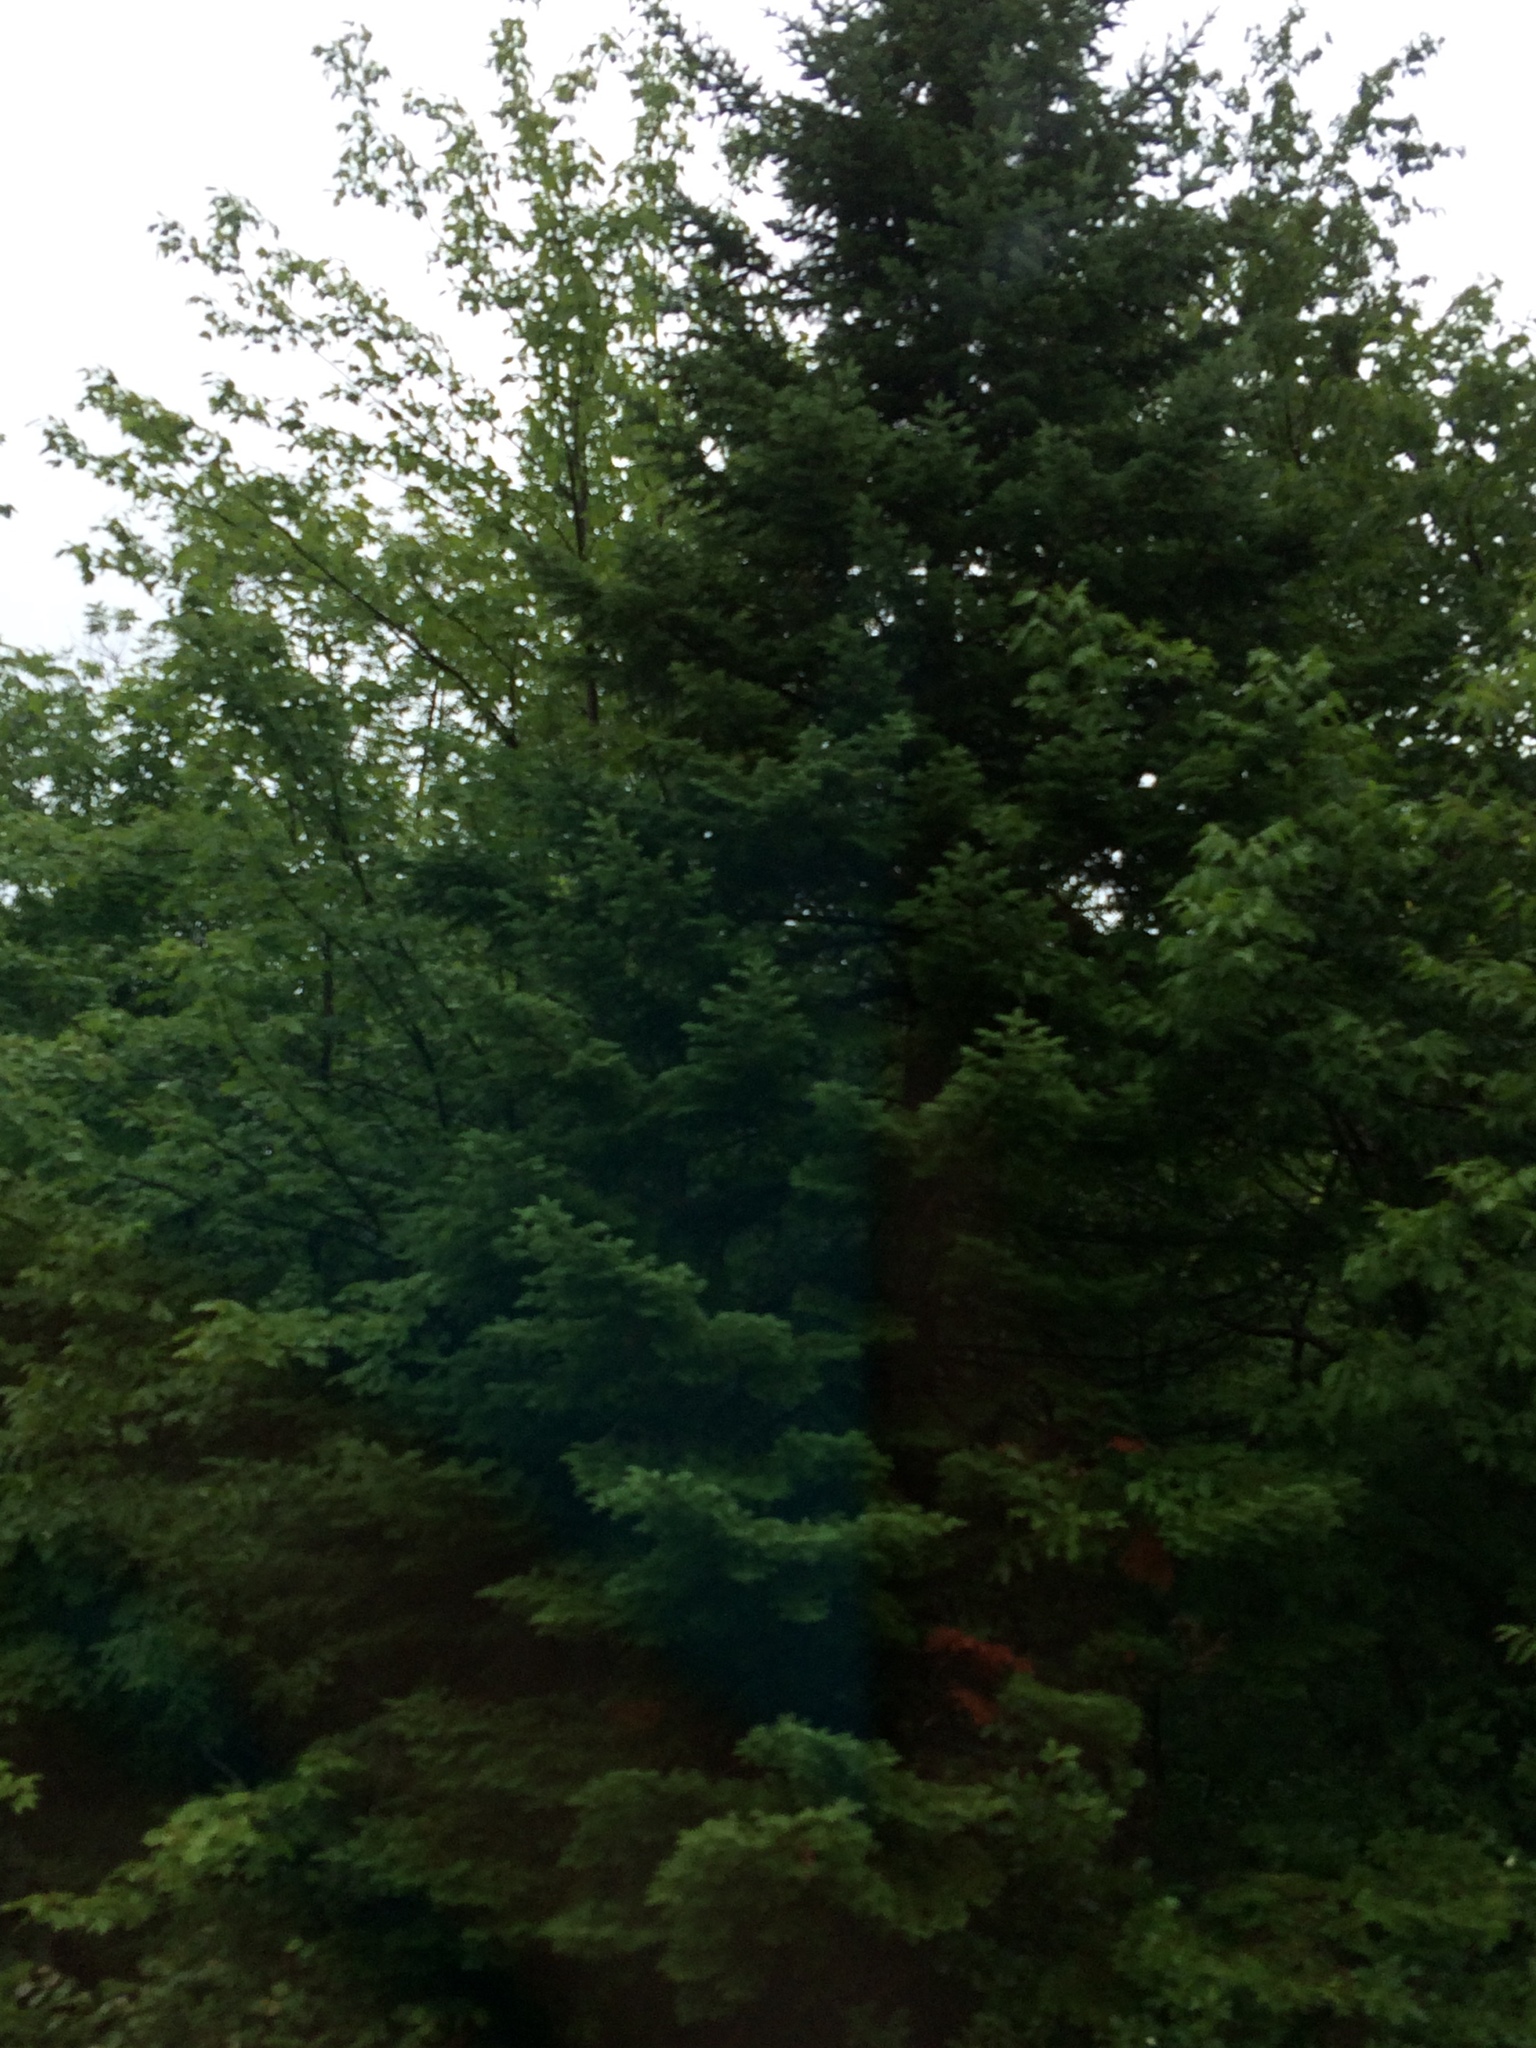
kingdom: Plantae
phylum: Tracheophyta
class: Pinopsida
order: Pinales
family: Pinaceae
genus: Abies
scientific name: Abies balsamea
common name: Balsam fir
